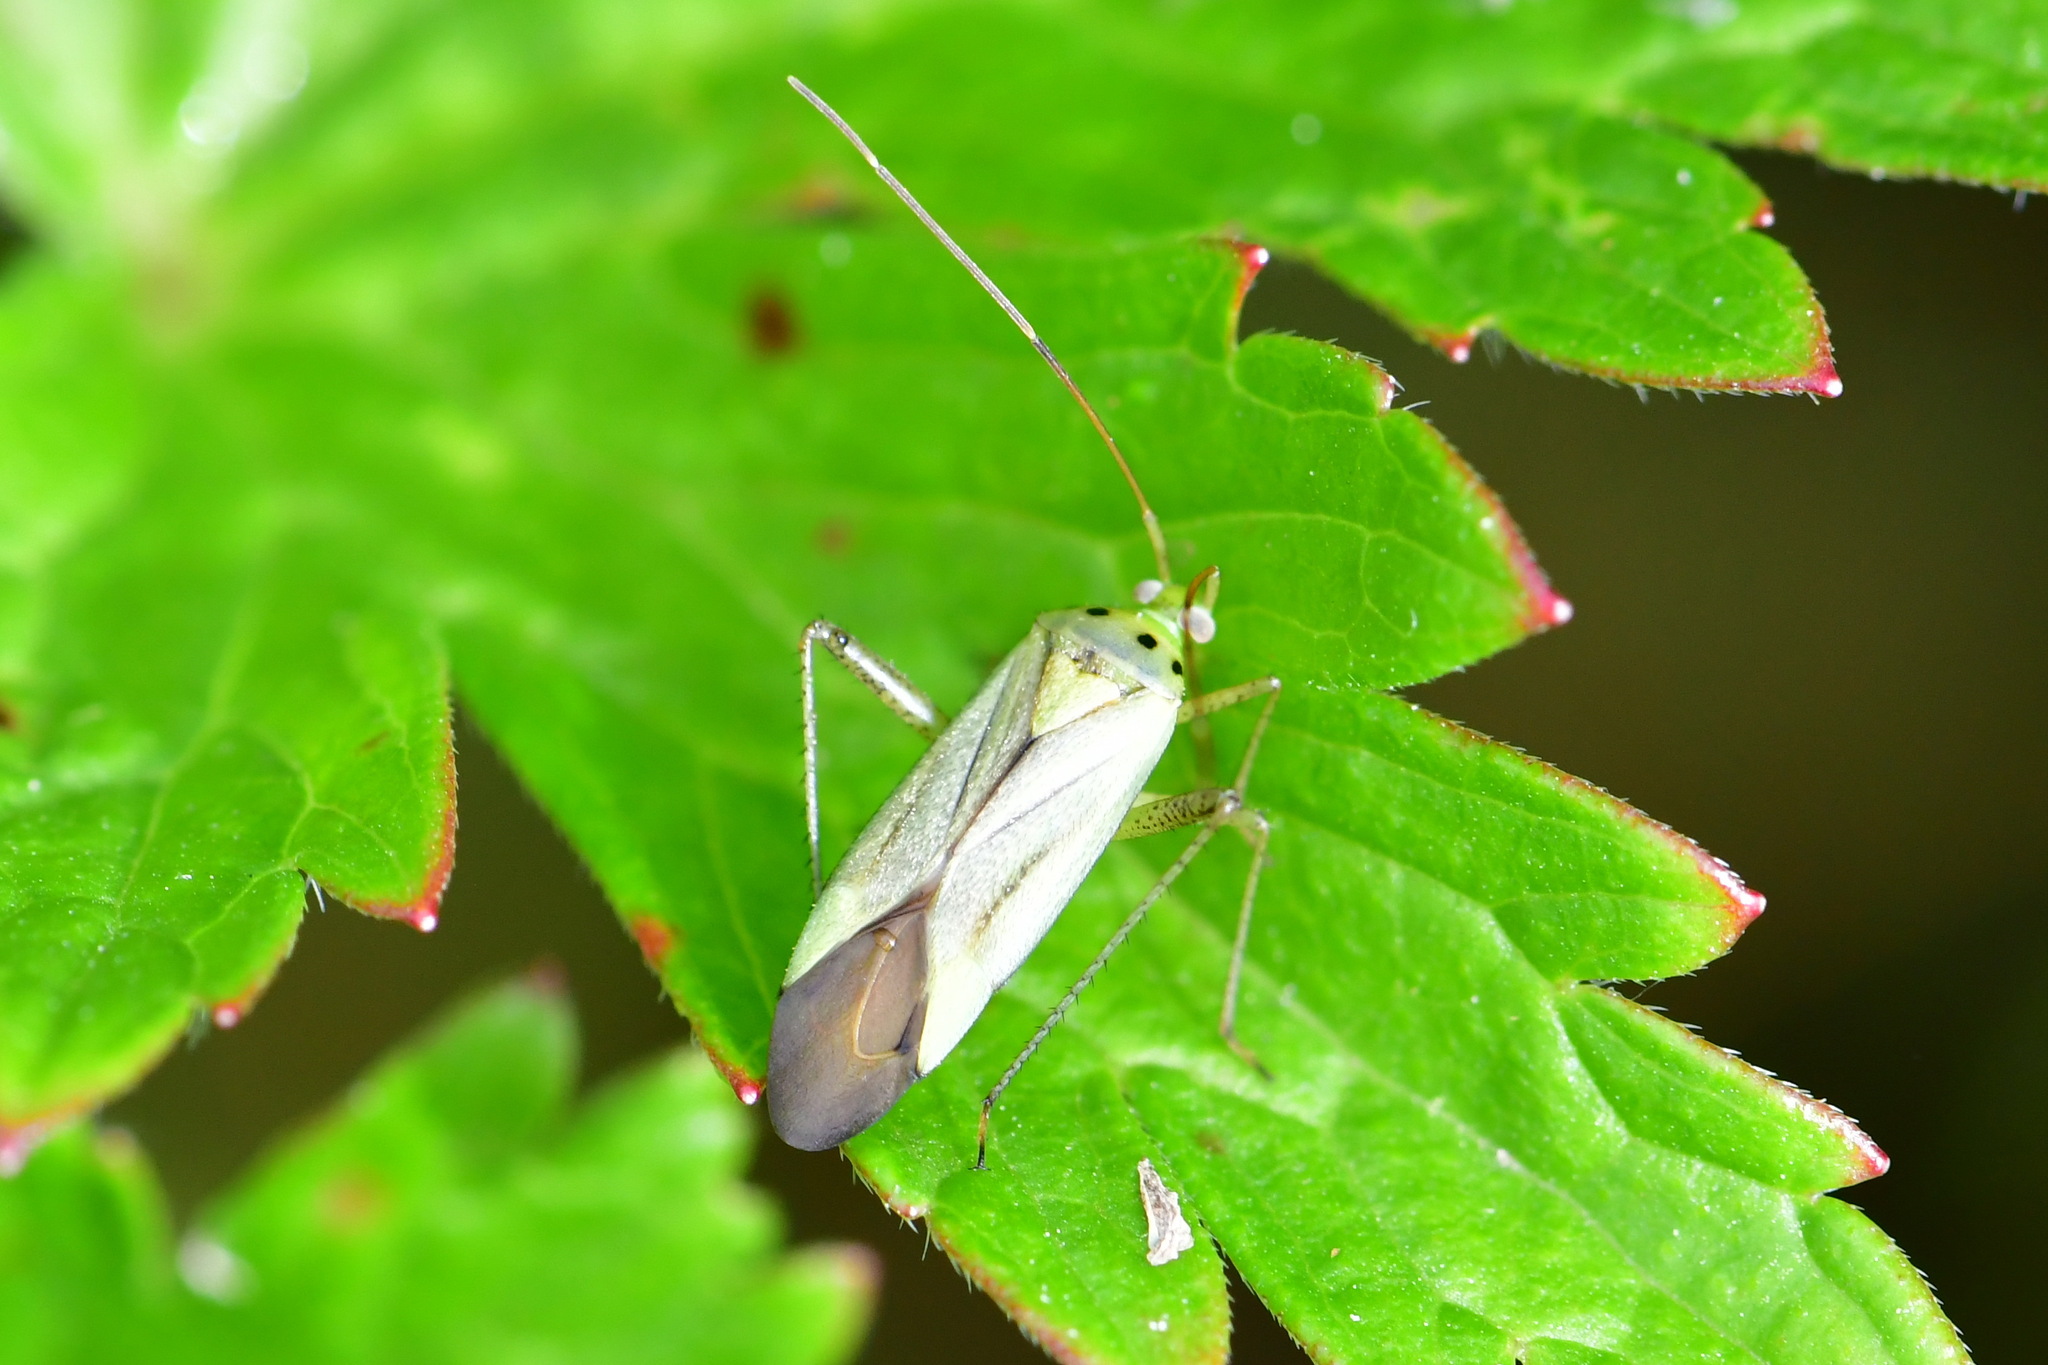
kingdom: Animalia
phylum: Arthropoda
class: Insecta
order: Hemiptera
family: Miridae
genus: Adelphocoris
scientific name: Adelphocoris quadripunctatus
